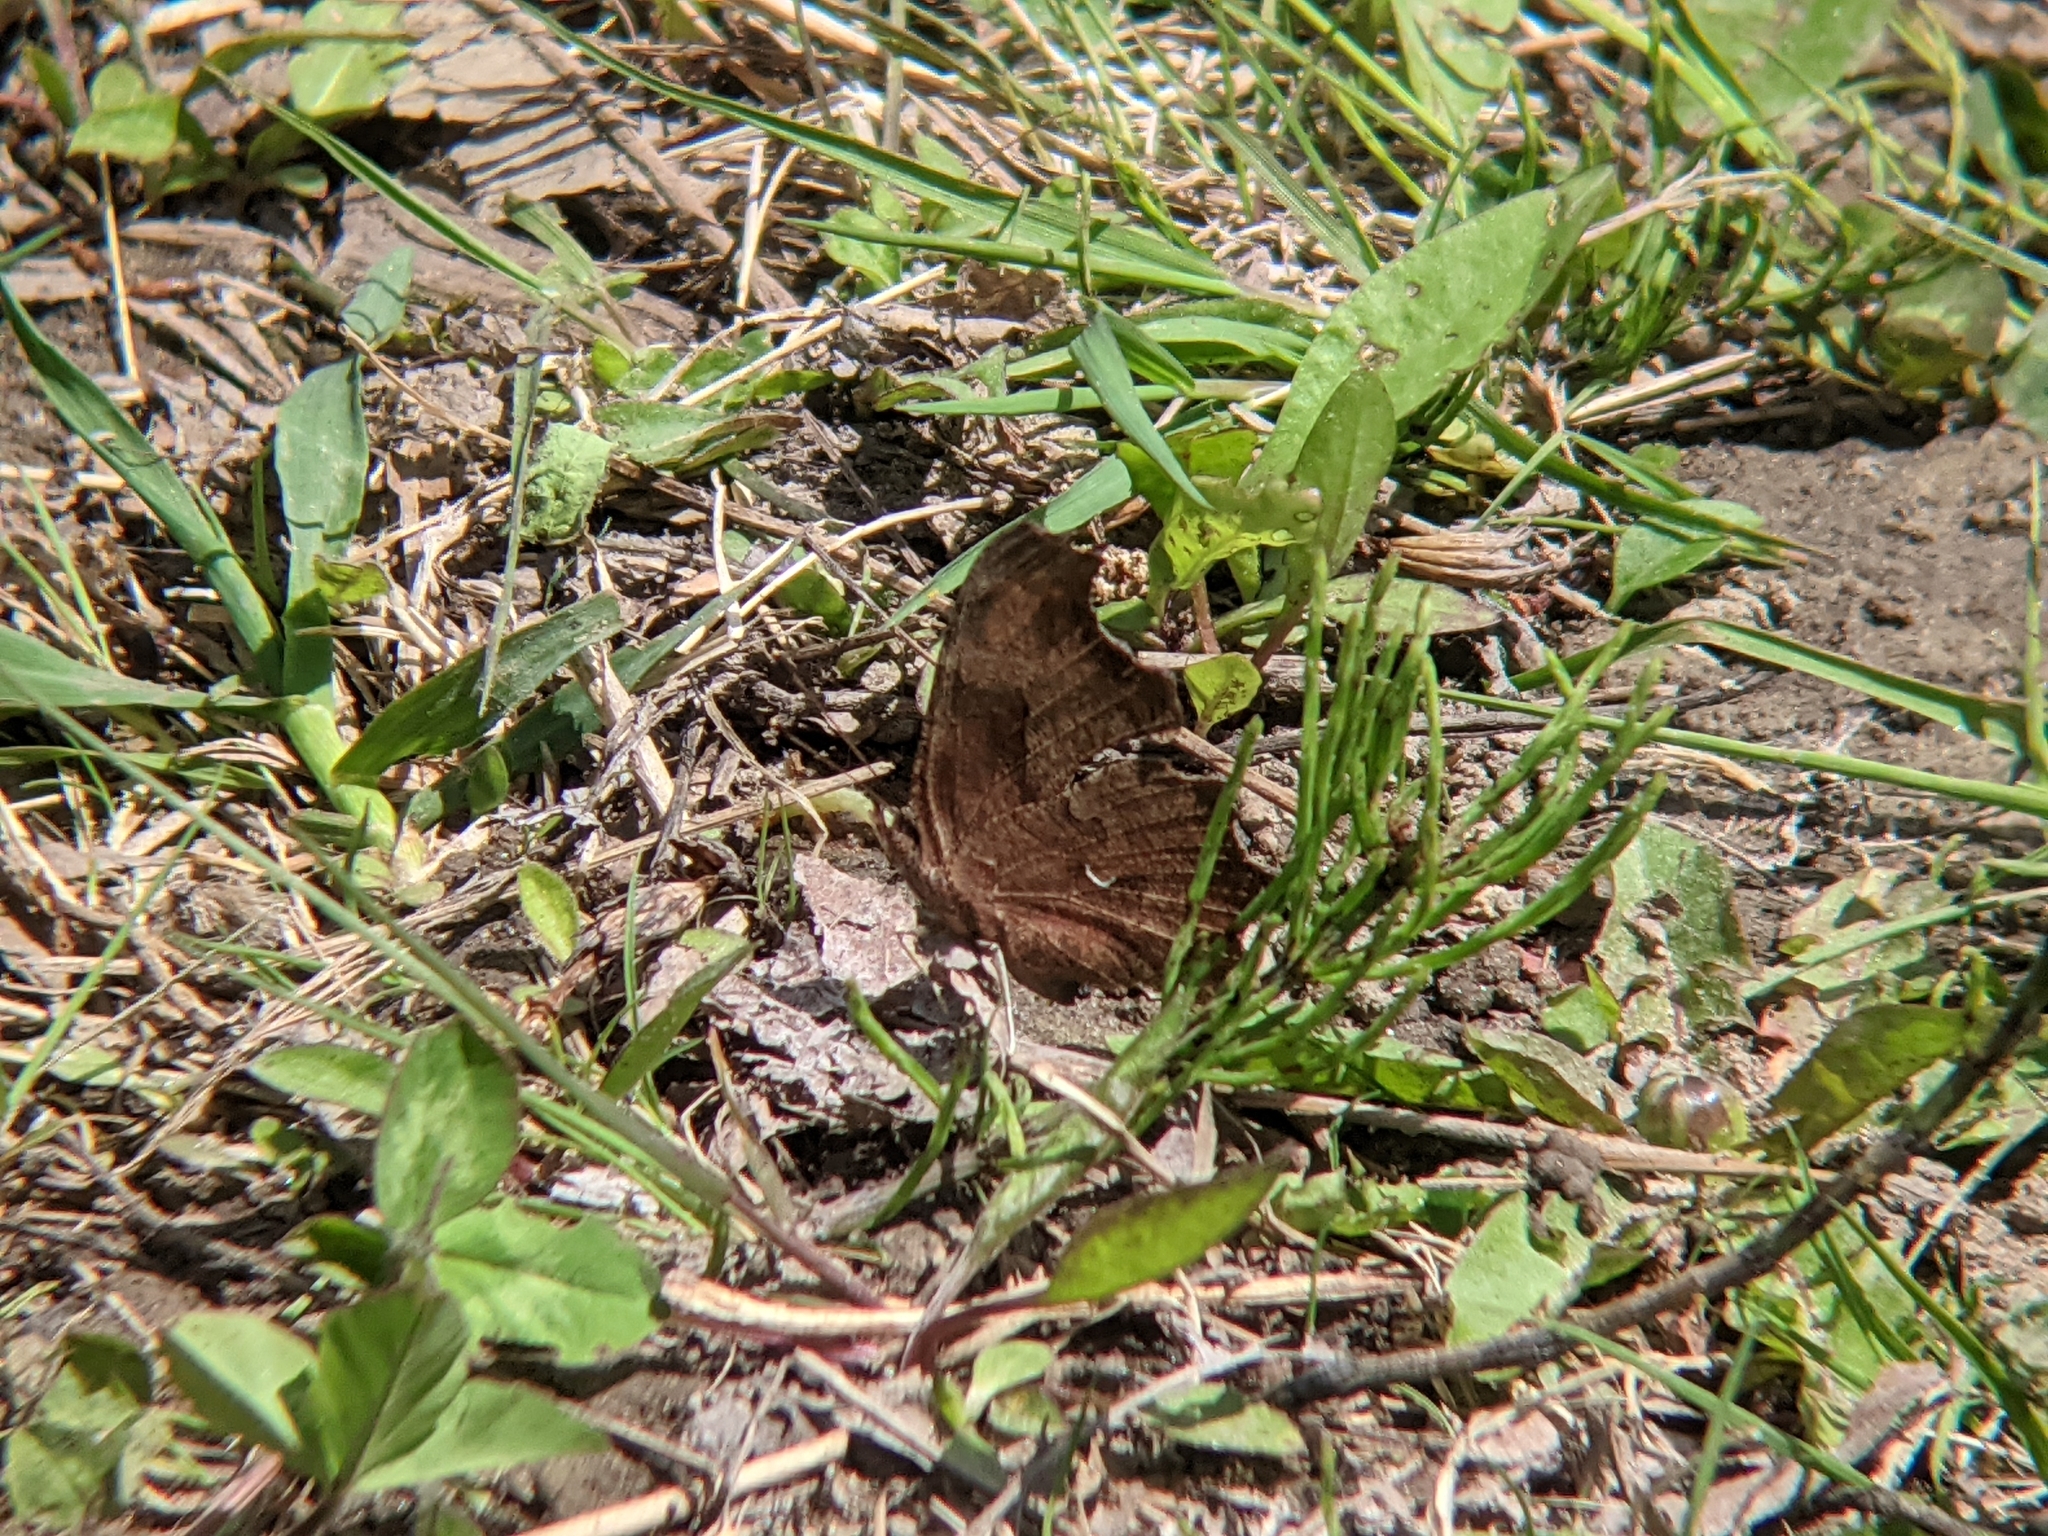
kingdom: Animalia
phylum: Arthropoda
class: Insecta
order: Lepidoptera
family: Nymphalidae
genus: Polygonia
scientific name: Polygonia comma
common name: Eastern comma
